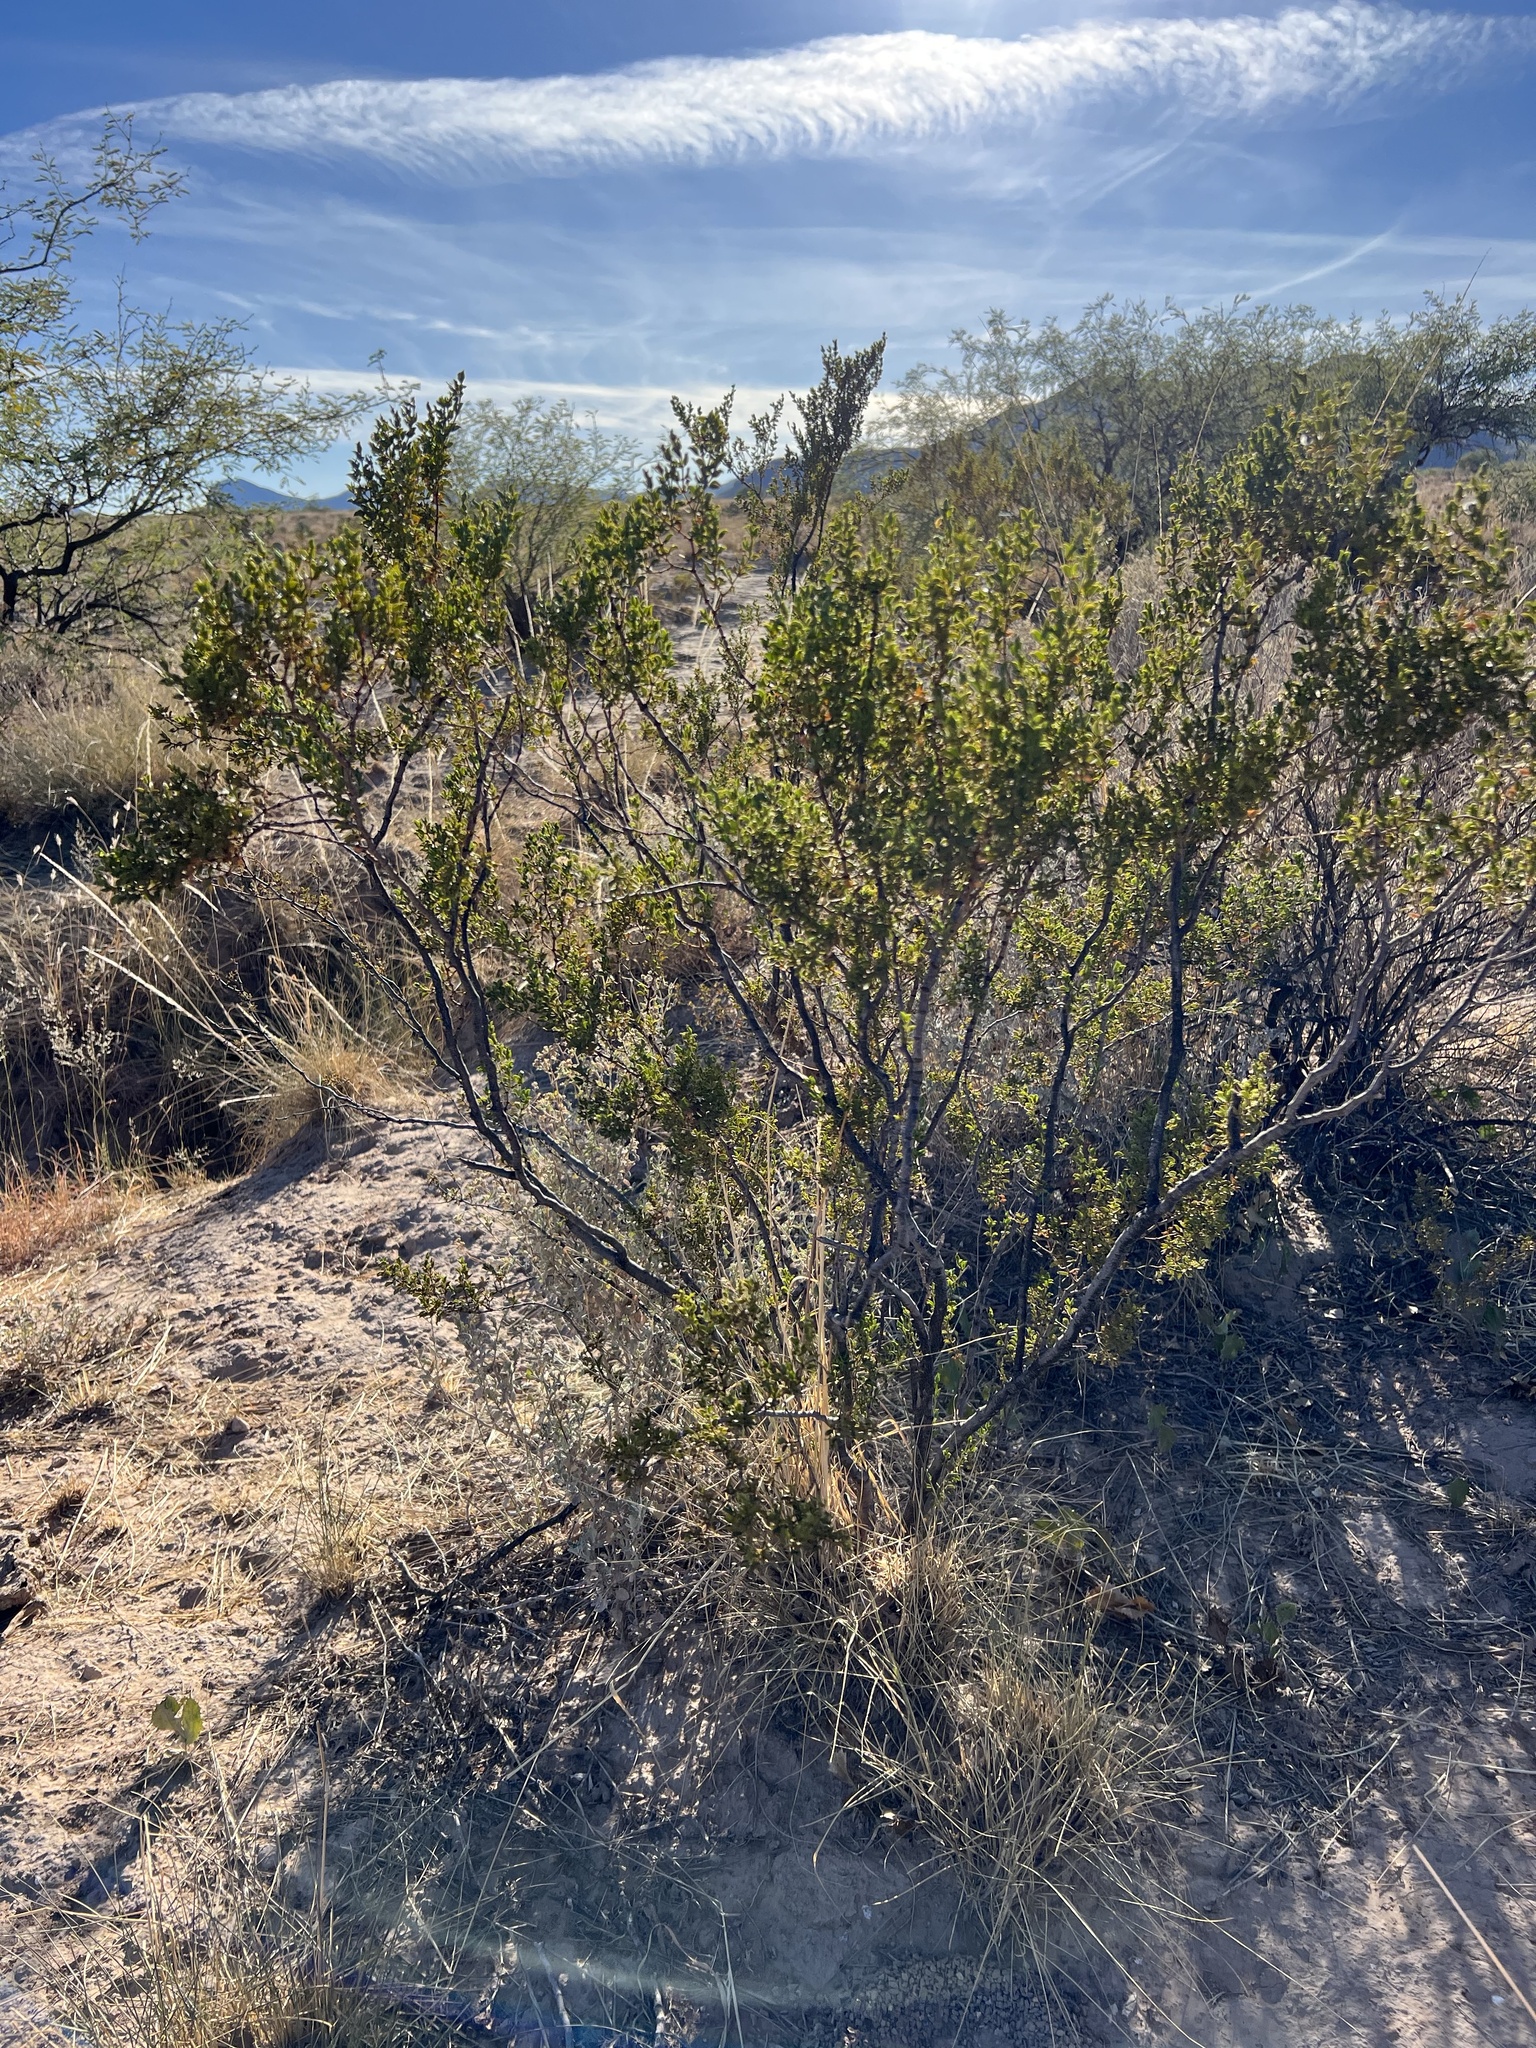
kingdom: Plantae
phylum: Tracheophyta
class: Magnoliopsida
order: Zygophyllales
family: Zygophyllaceae
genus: Larrea
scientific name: Larrea tridentata
